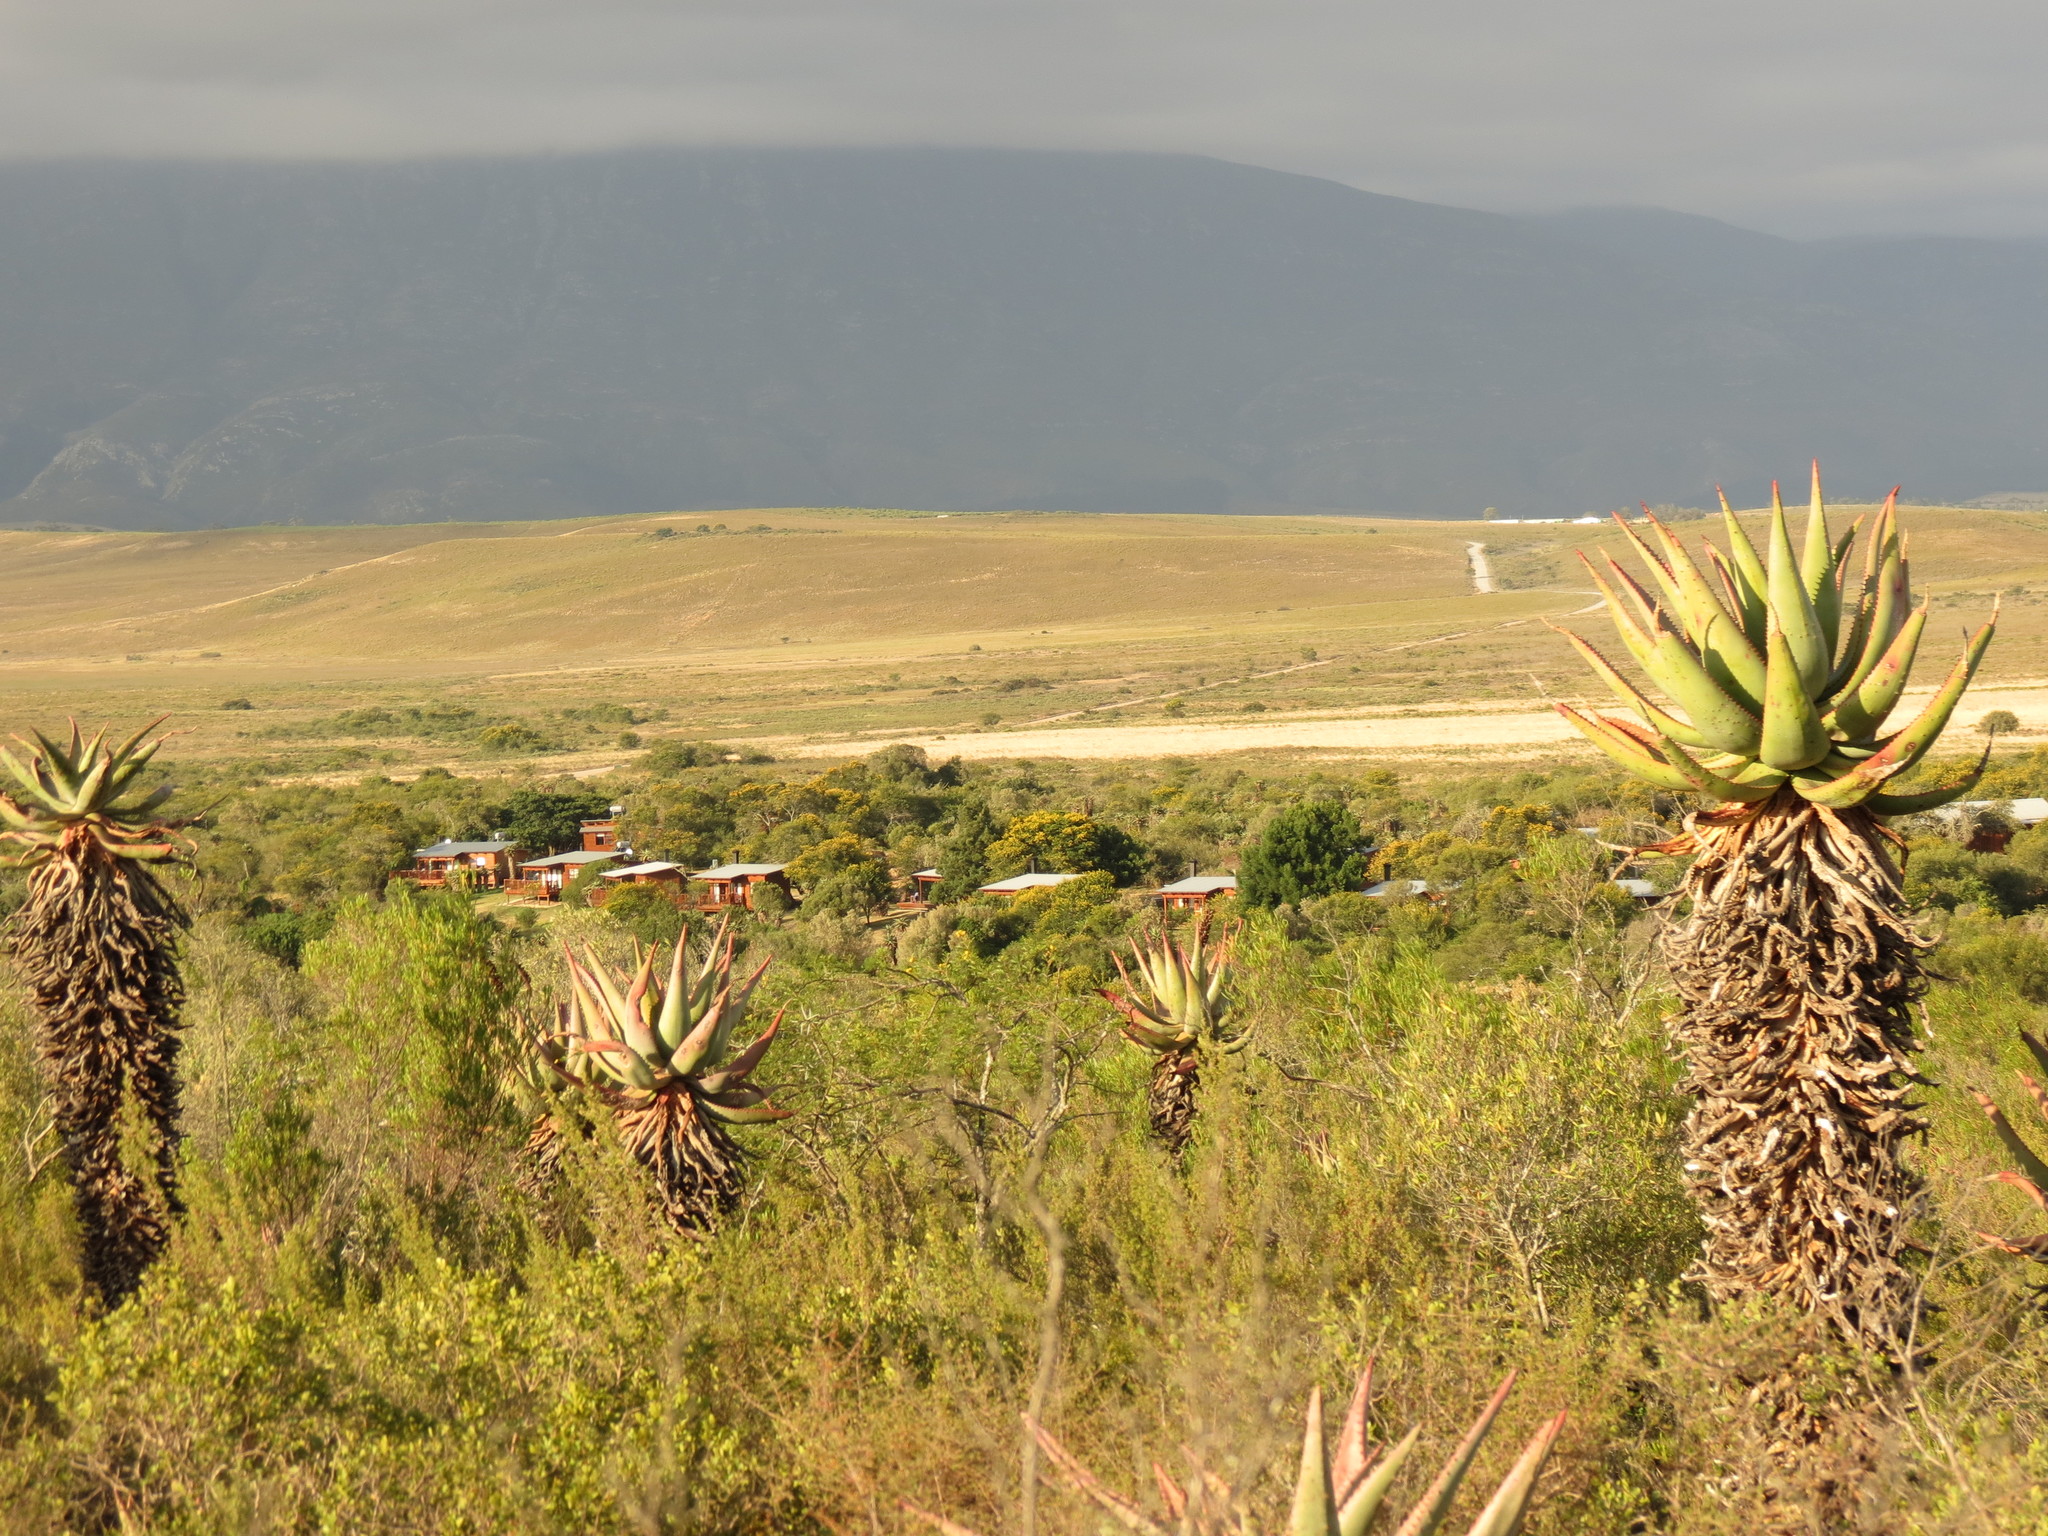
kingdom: Plantae
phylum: Tracheophyta
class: Liliopsida
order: Asparagales
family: Asphodelaceae
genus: Aloe
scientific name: Aloe ferox
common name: Bitter aloe
